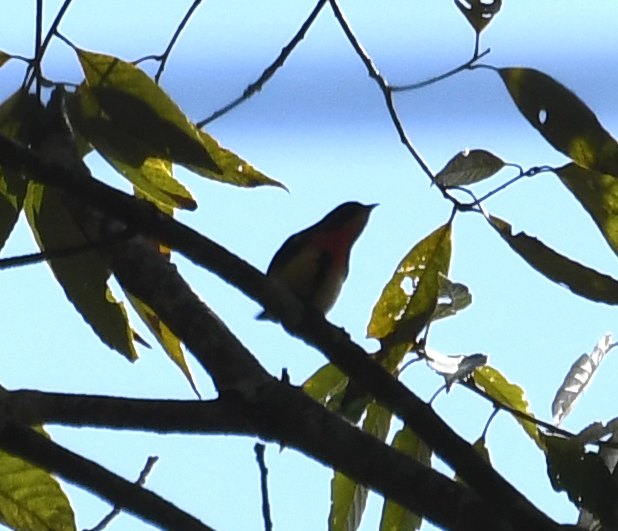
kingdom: Animalia
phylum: Chordata
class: Aves
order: Passeriformes
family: Dicaeidae
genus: Dicaeum
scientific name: Dicaeum ignipectus
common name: Fire-breasted flowerpecker
